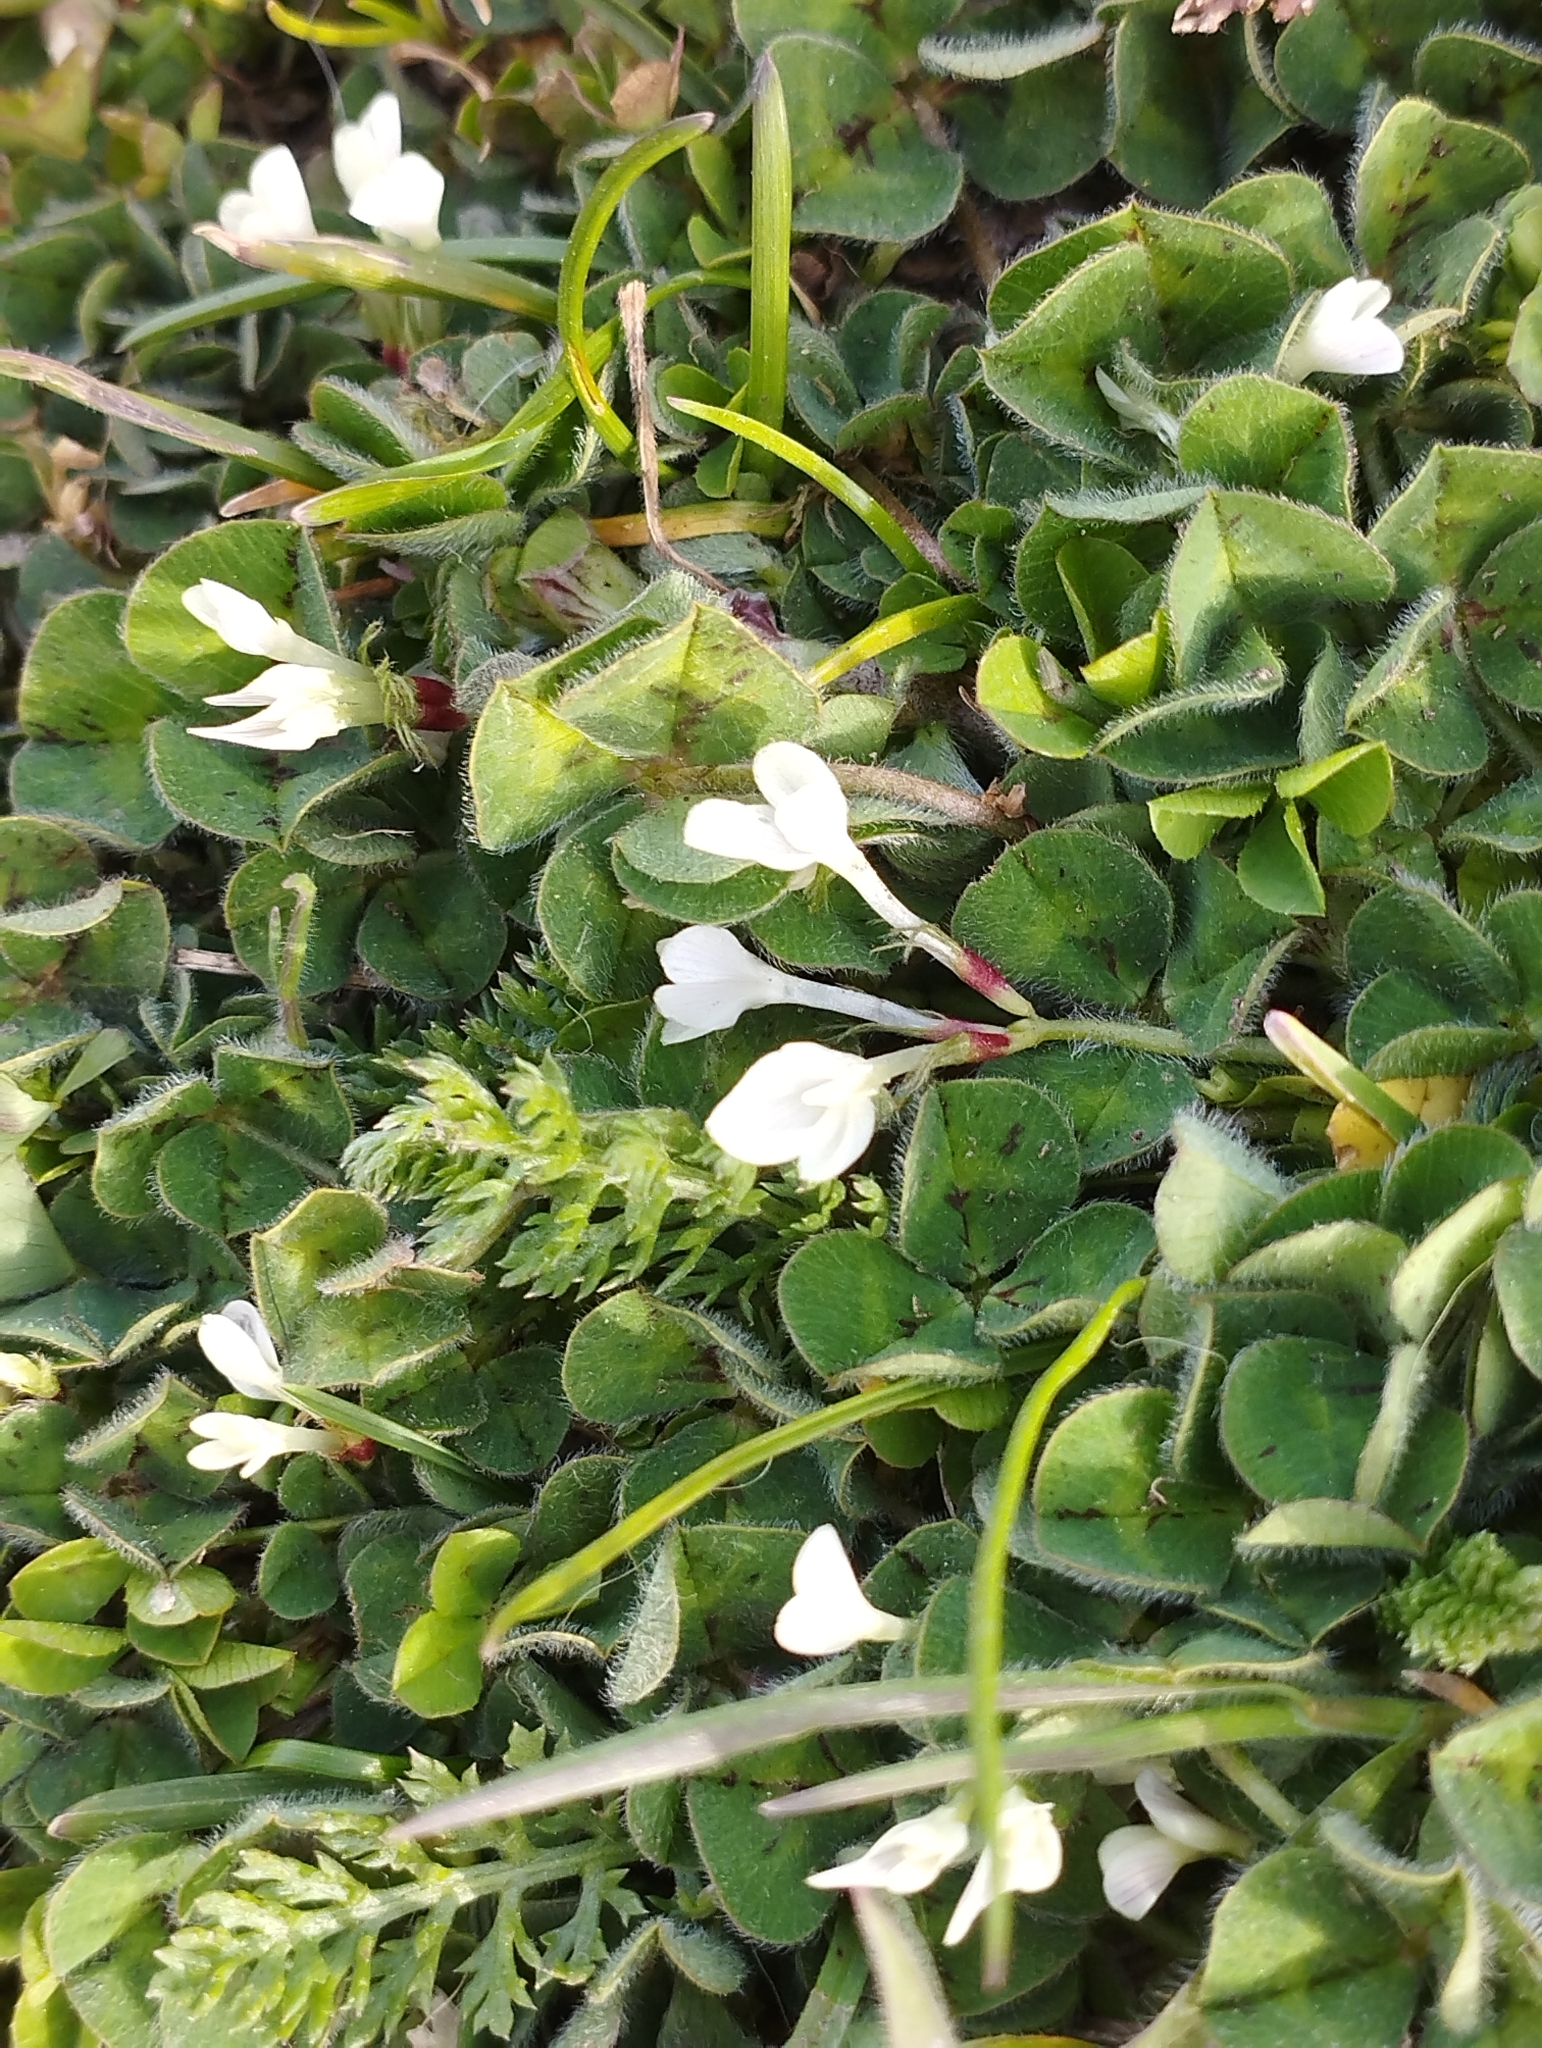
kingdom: Plantae
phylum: Tracheophyta
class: Magnoliopsida
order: Fabales
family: Fabaceae
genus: Trifolium
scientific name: Trifolium subterraneum
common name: Subterranean clover
